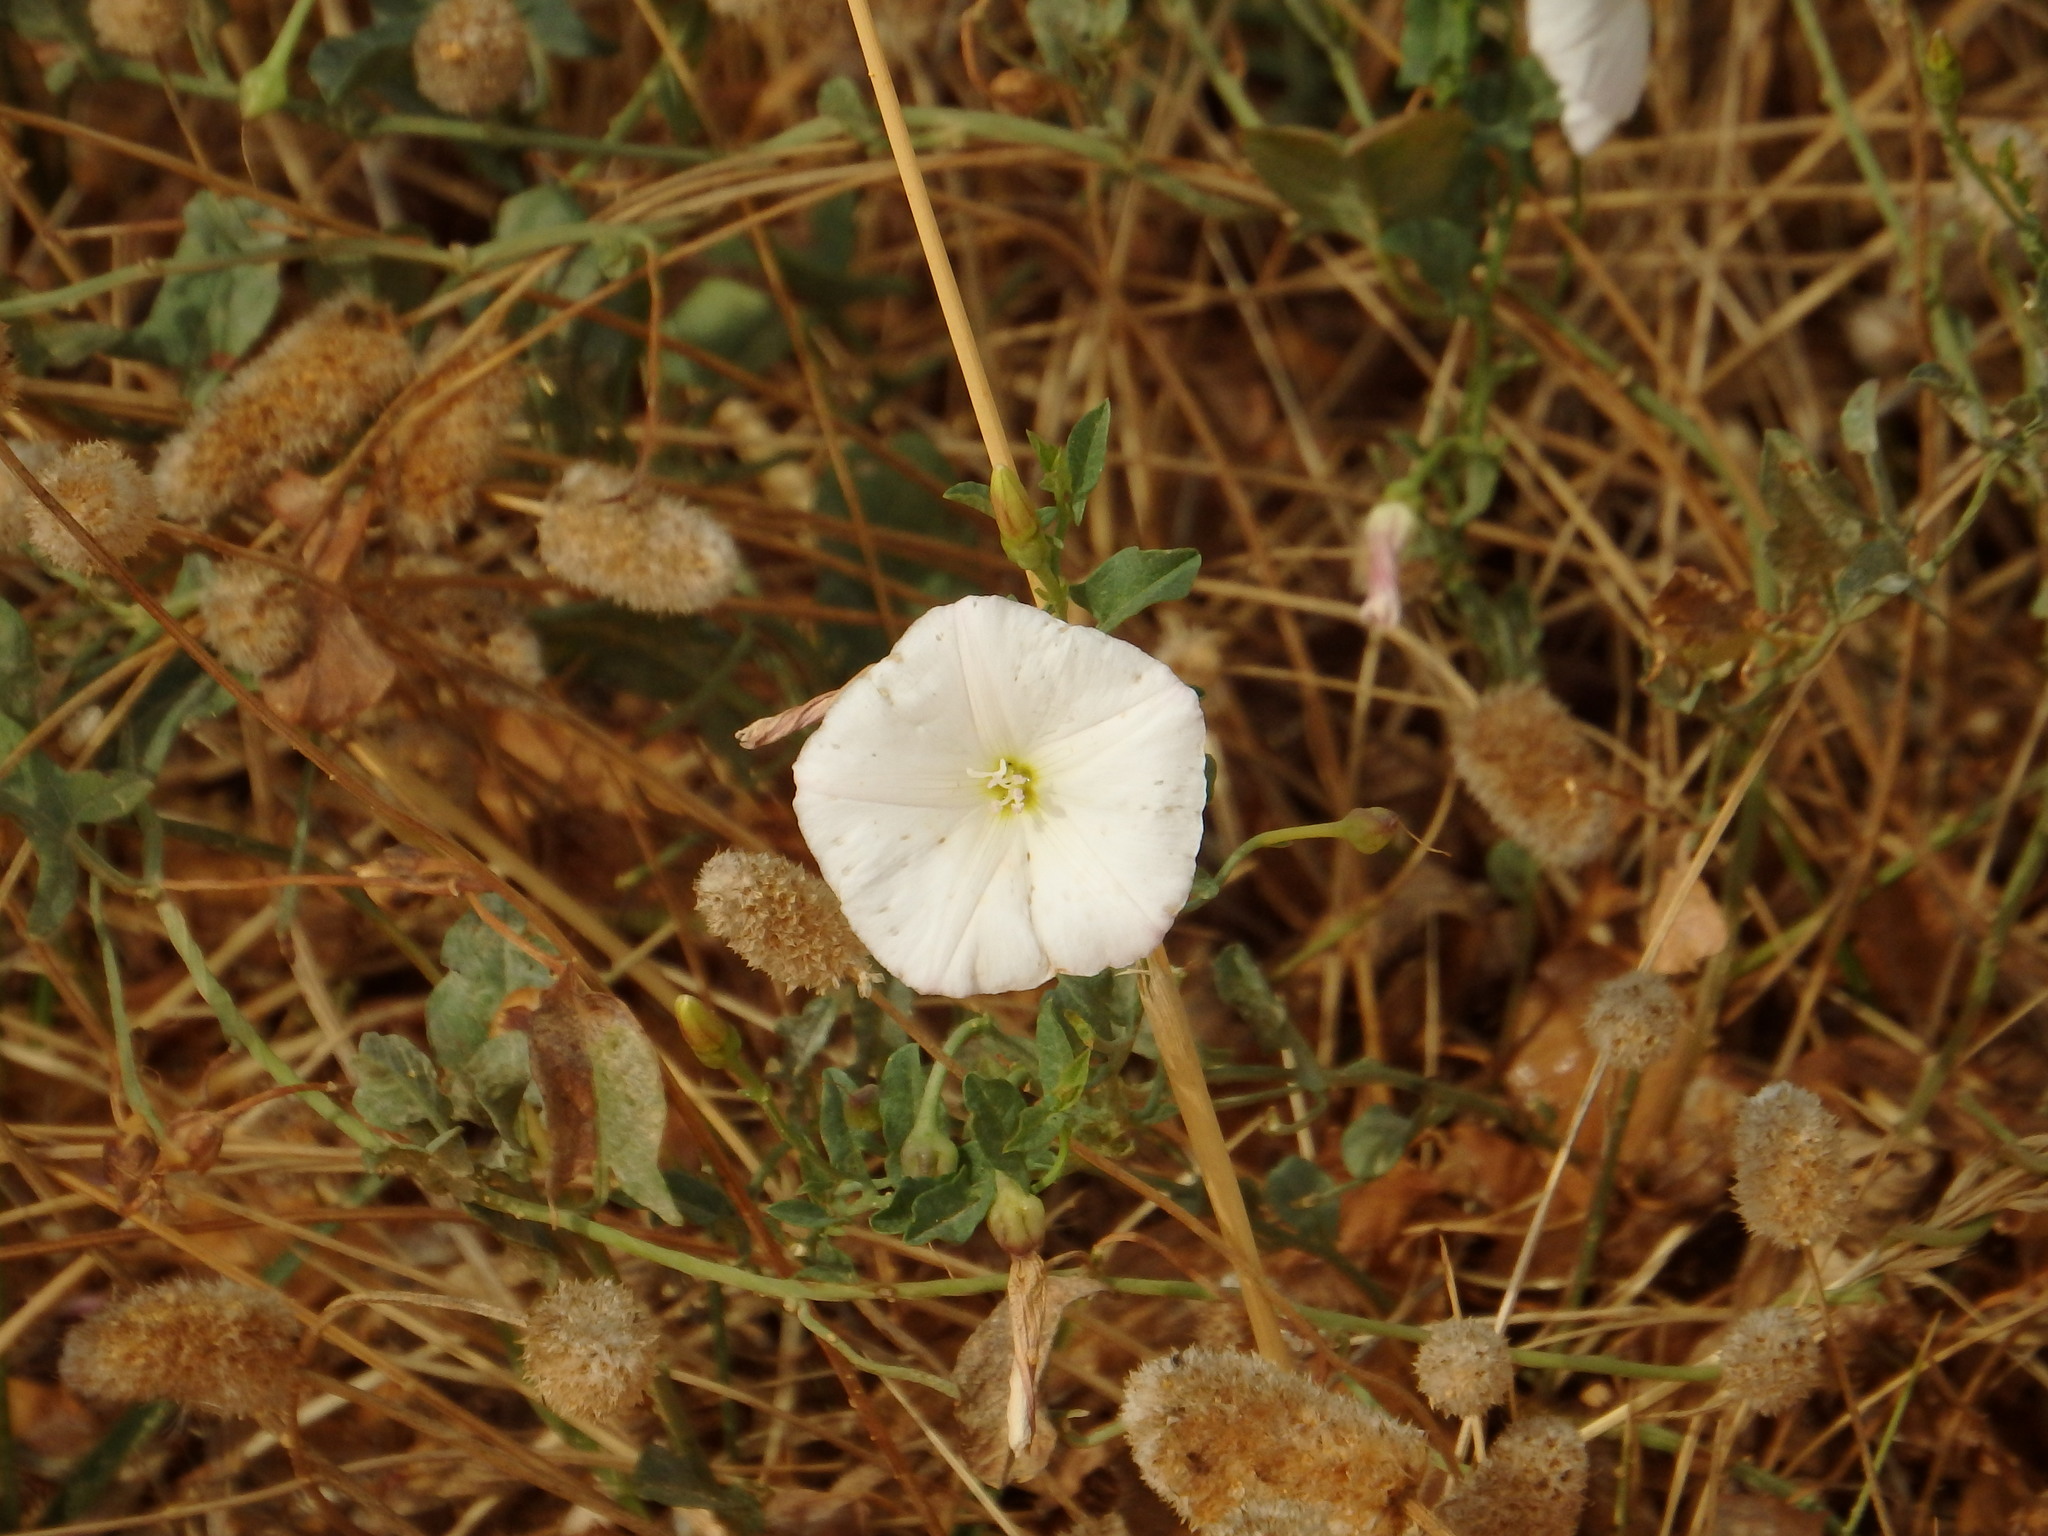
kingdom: Plantae
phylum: Tracheophyta
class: Magnoliopsida
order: Solanales
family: Convolvulaceae
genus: Convolvulus
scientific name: Convolvulus arvensis
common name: Field bindweed
